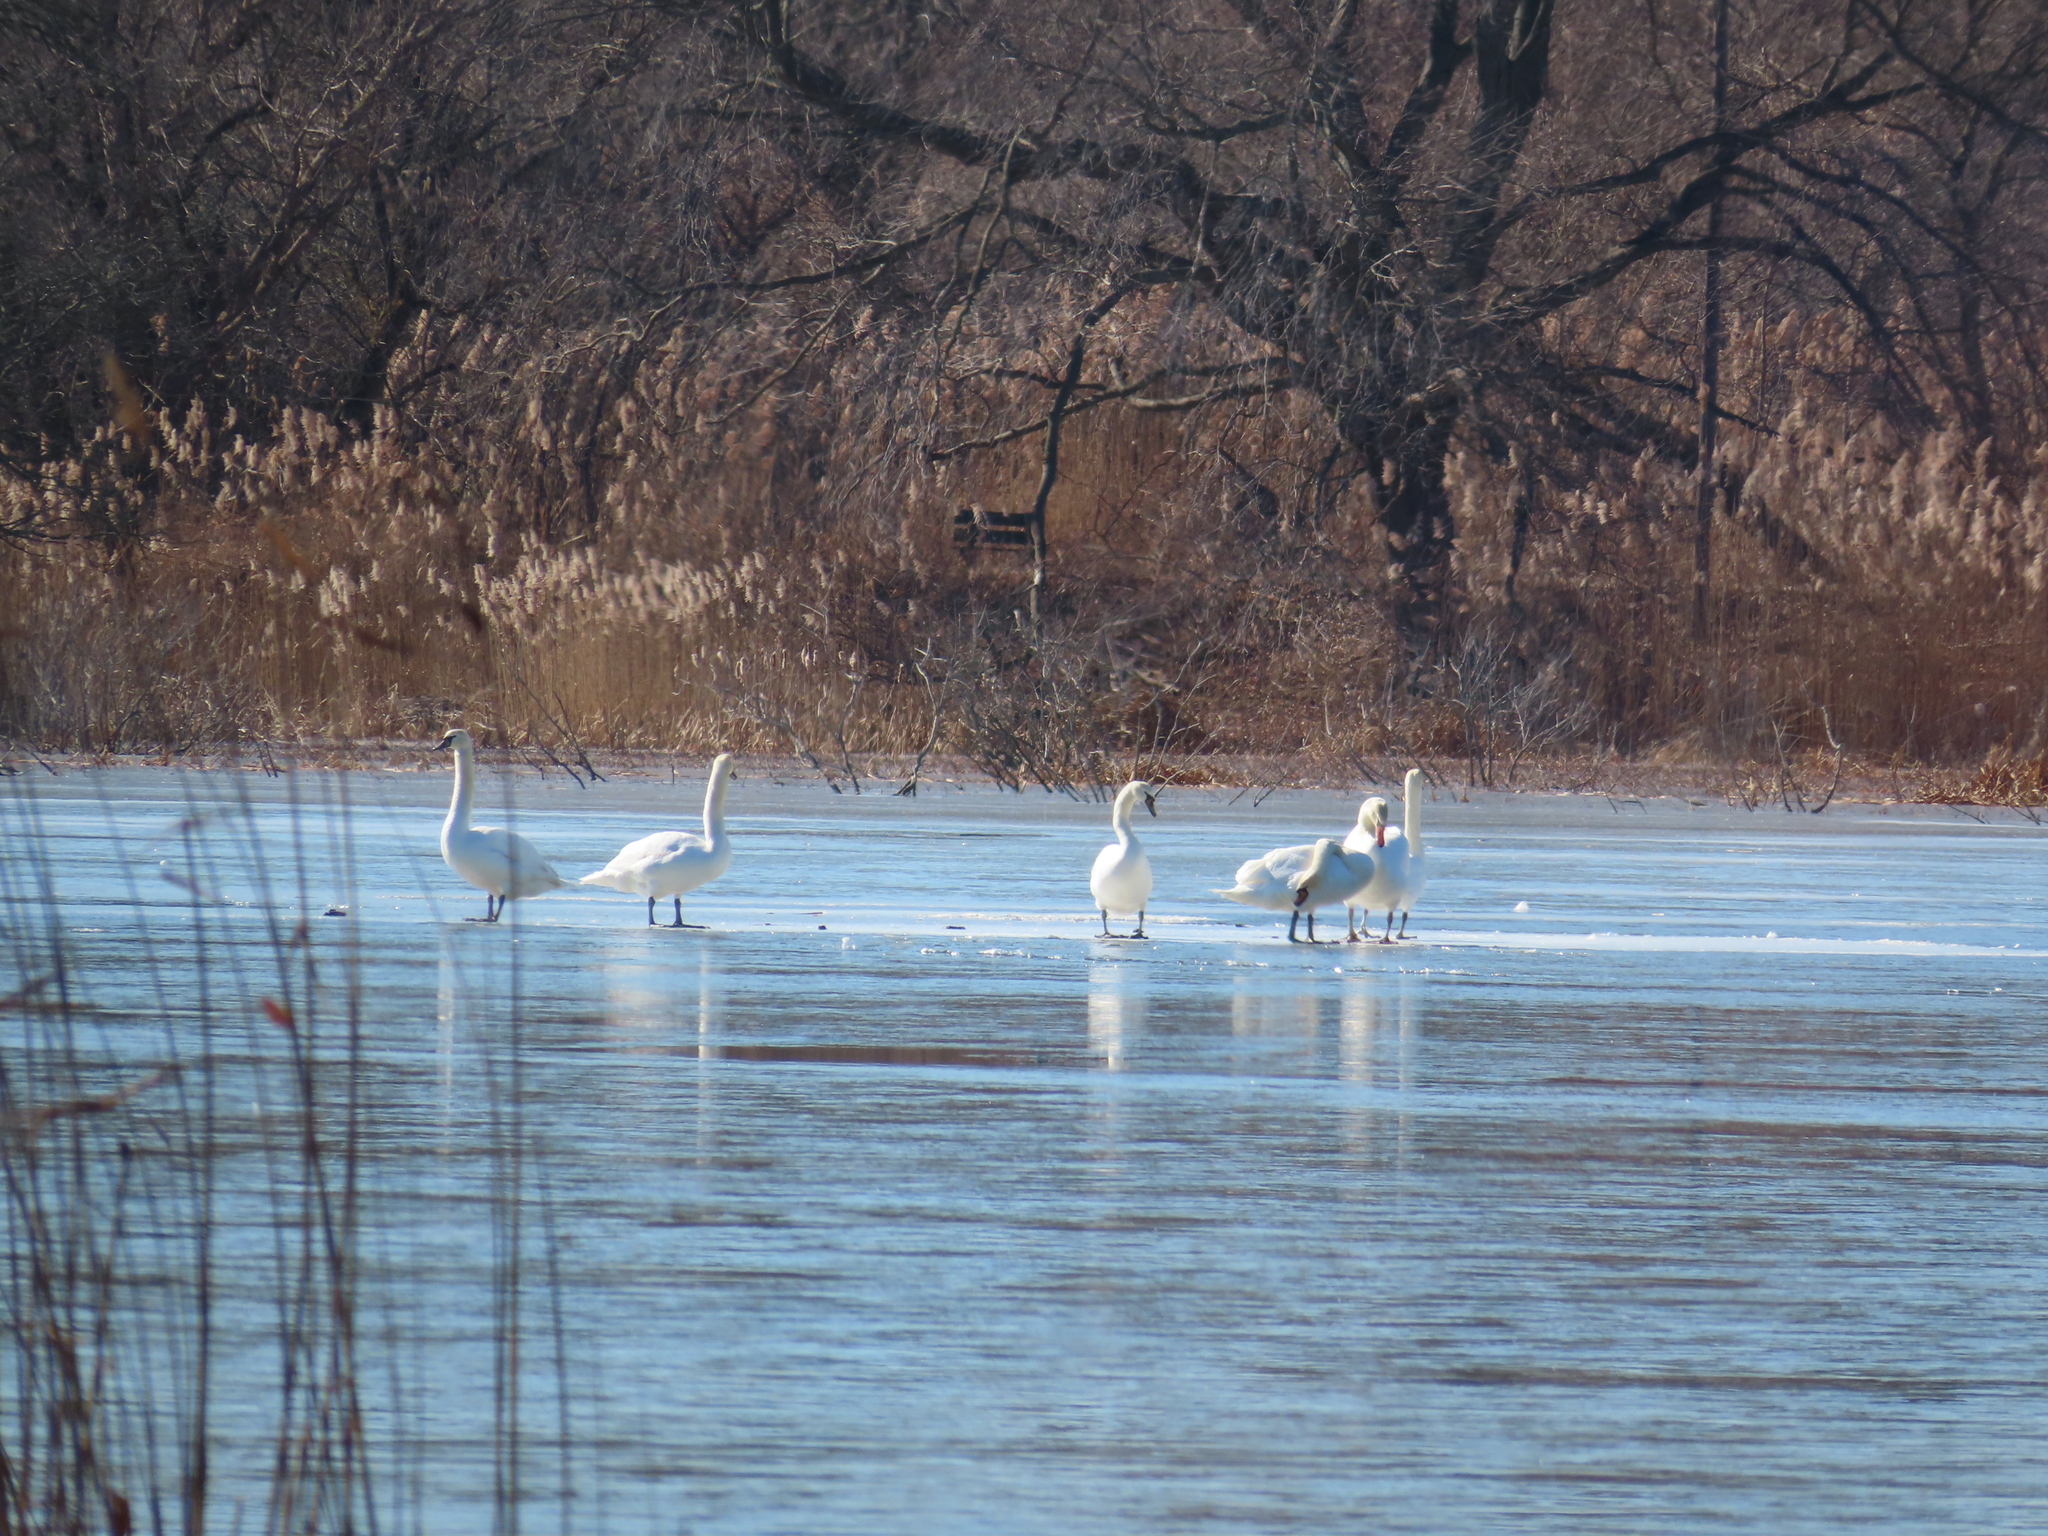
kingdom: Animalia
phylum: Chordata
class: Aves
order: Anseriformes
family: Anatidae
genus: Cygnus
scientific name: Cygnus olor
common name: Mute swan
